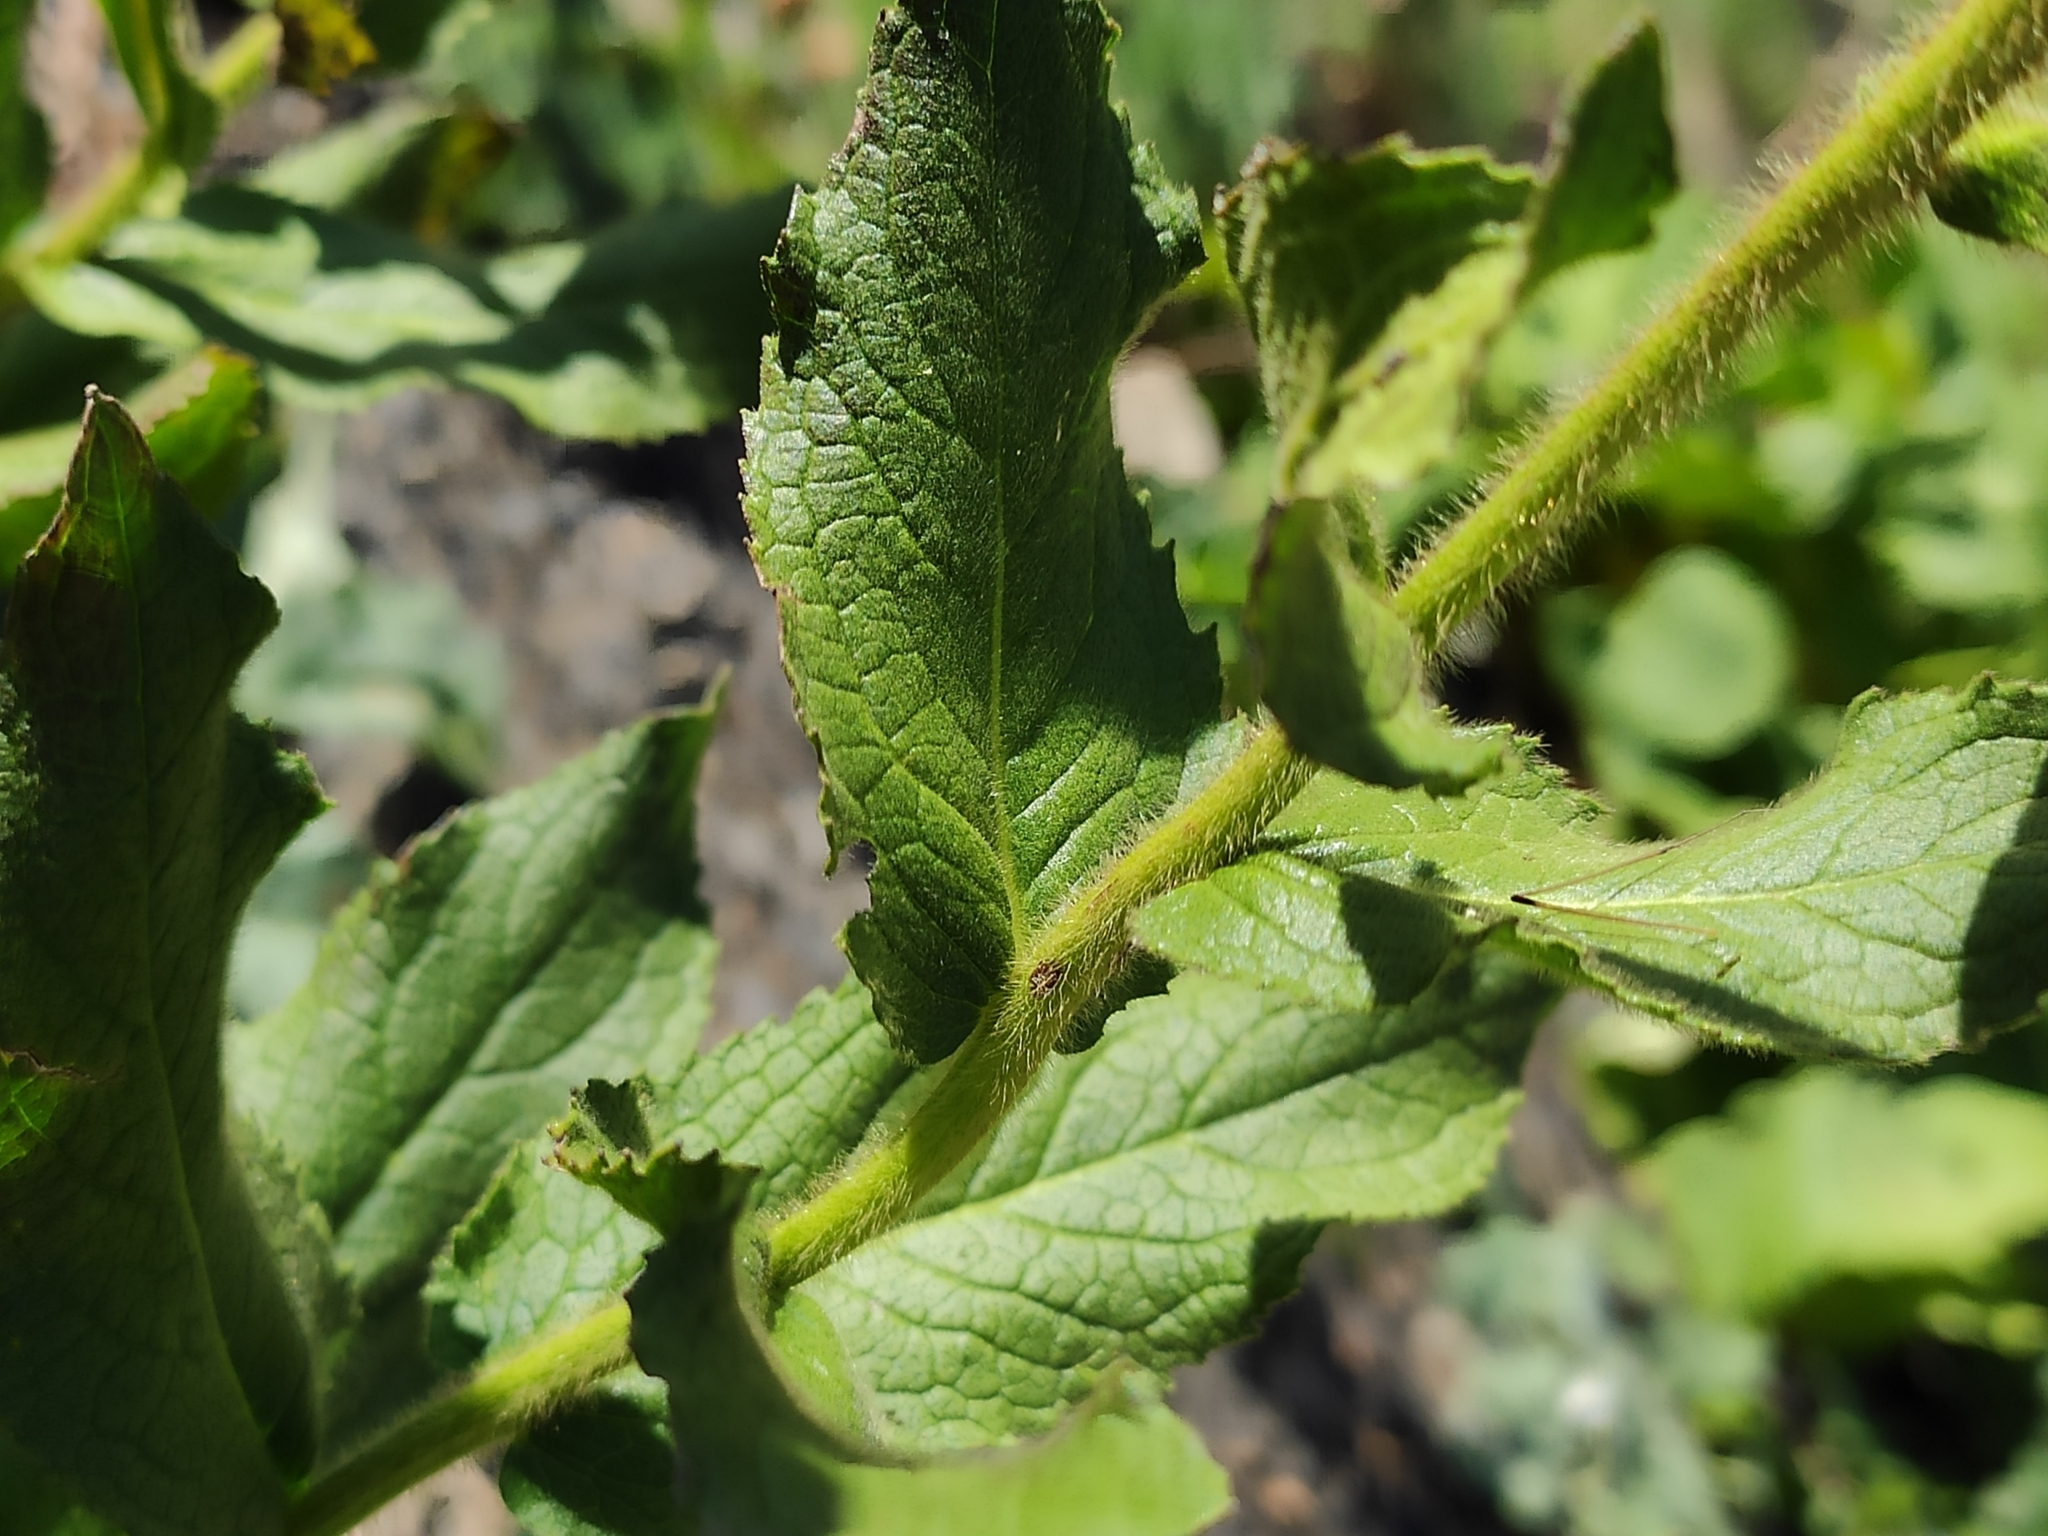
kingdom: Plantae
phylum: Tracheophyta
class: Magnoliopsida
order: Asterales
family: Asteraceae
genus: Pentanema
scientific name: Pentanema orientale
